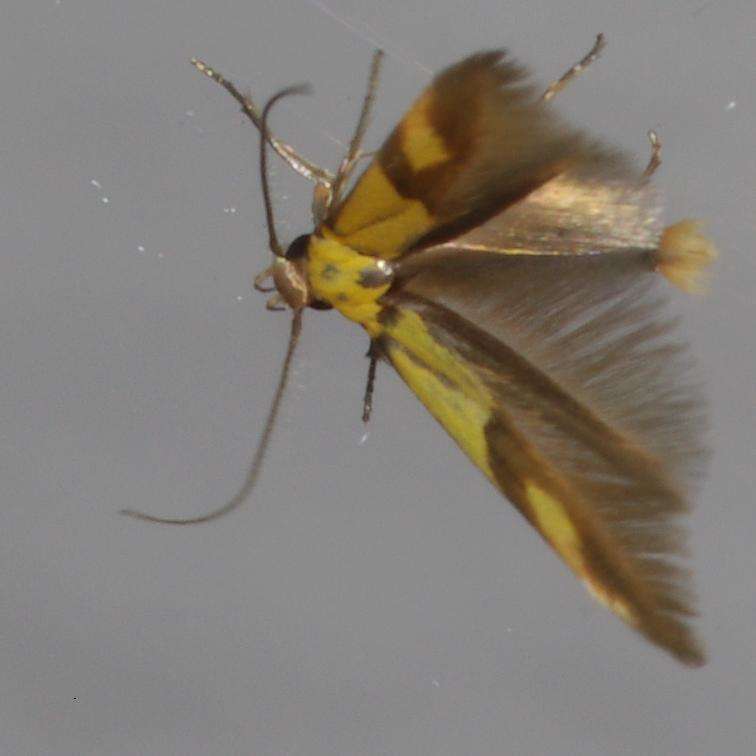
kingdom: Animalia
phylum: Arthropoda
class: Insecta
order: Lepidoptera
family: Stathmopodidae
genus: Stathmopoda
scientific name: Stathmopoda auriferella
